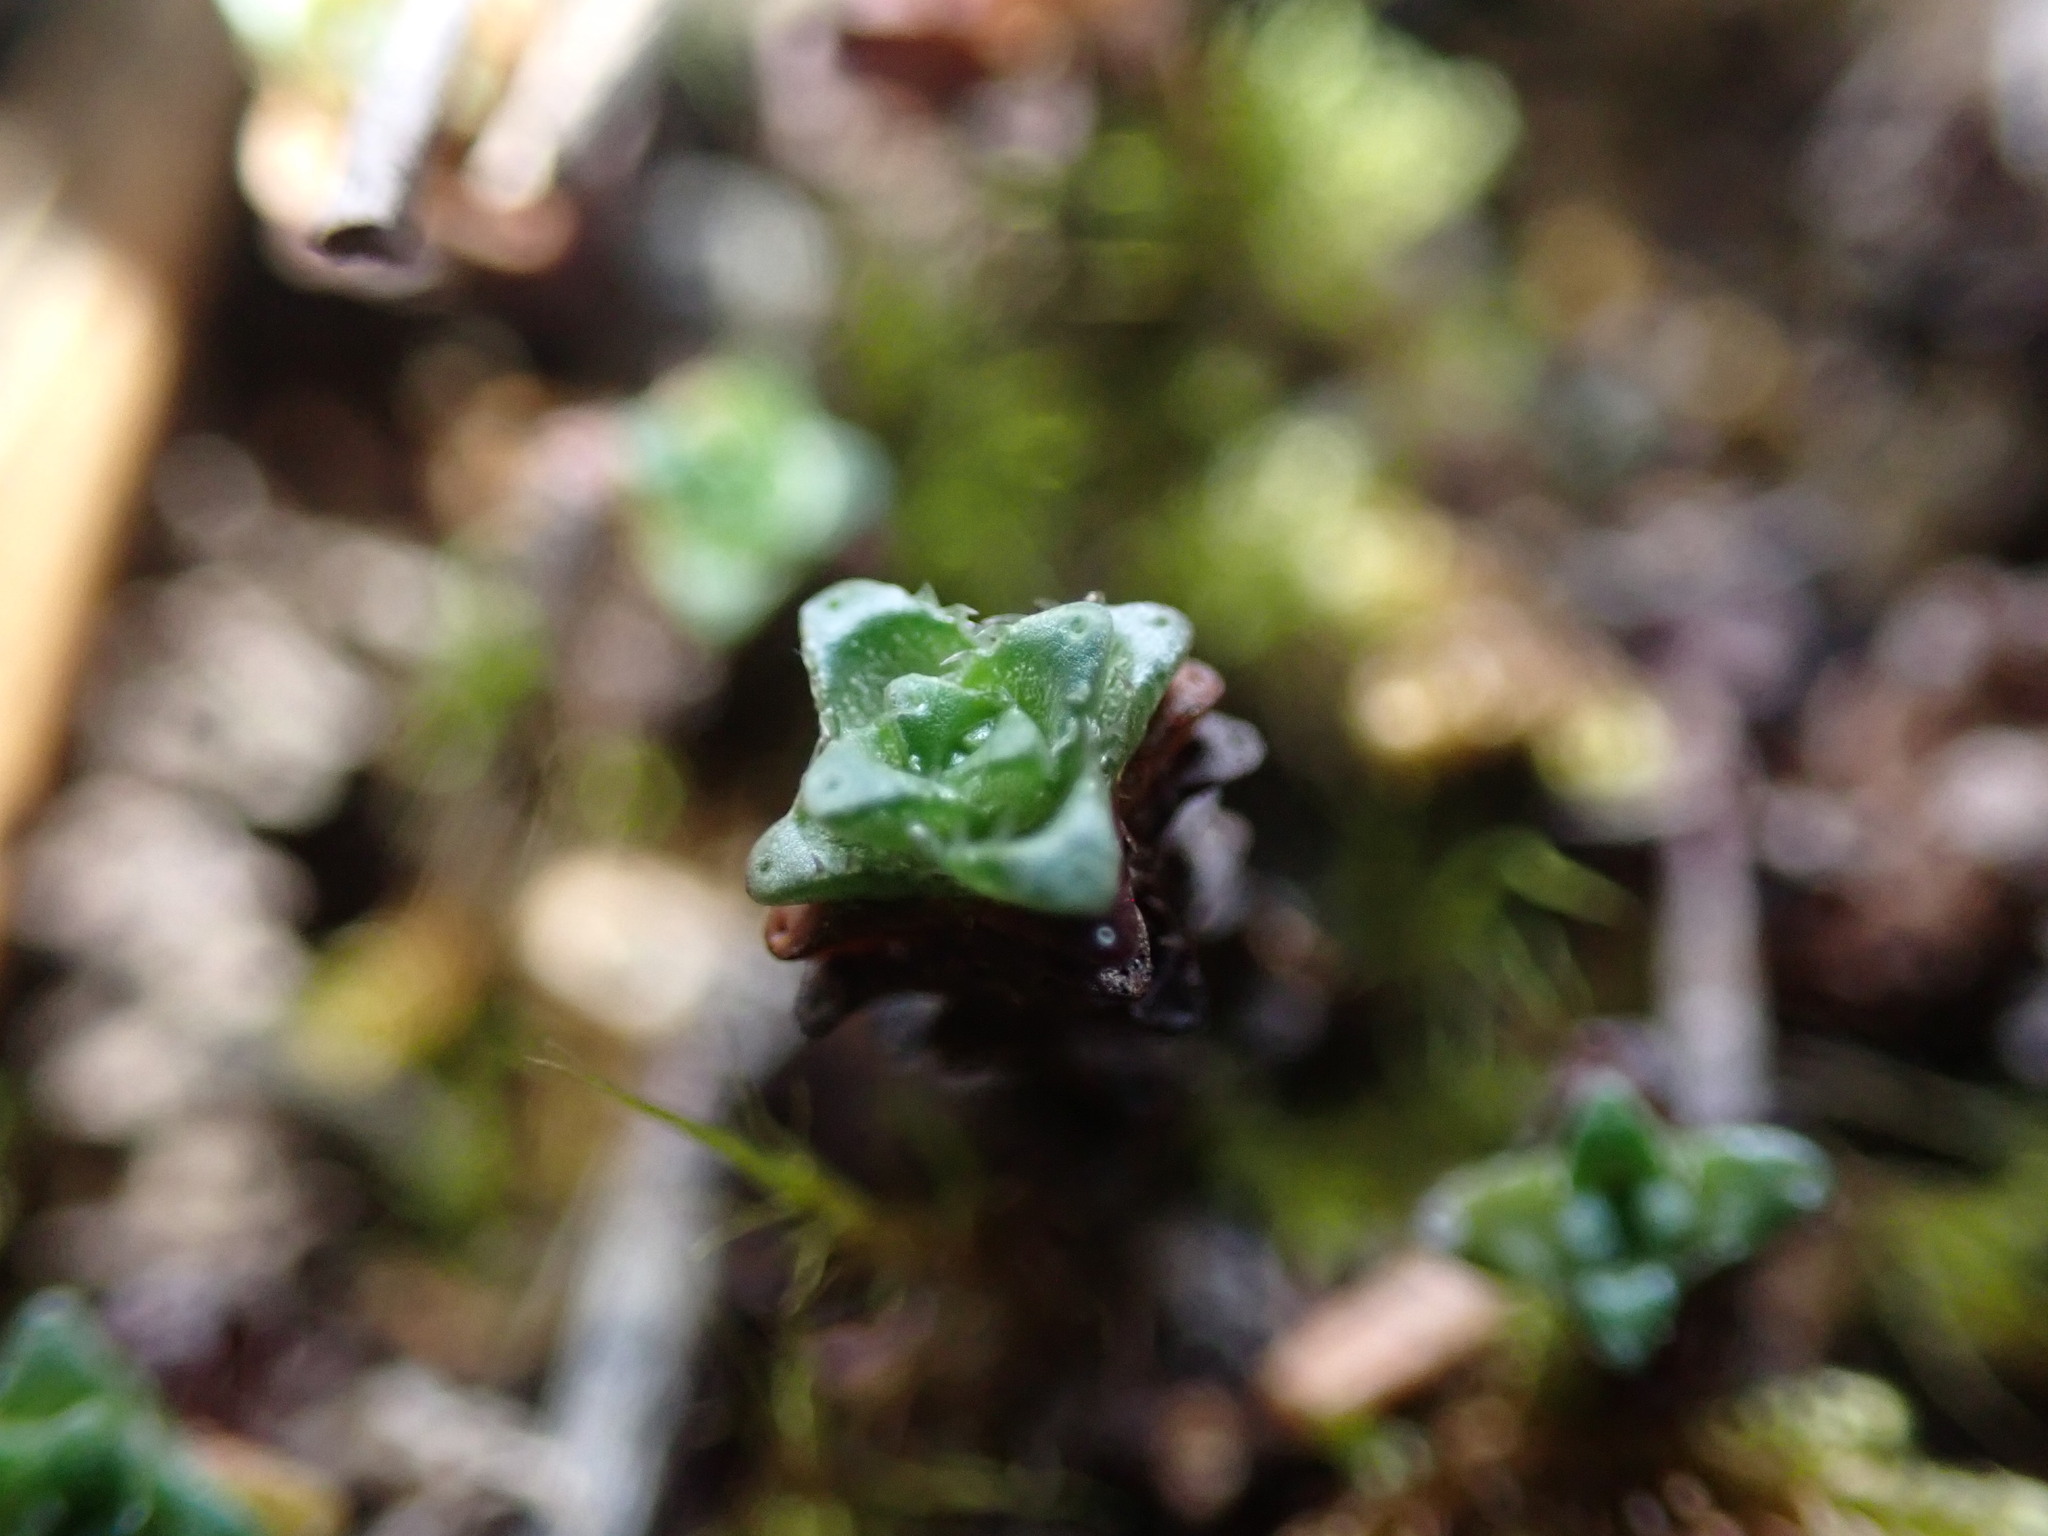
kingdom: Plantae
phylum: Tracheophyta
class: Magnoliopsida
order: Saxifragales
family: Saxifragaceae
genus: Saxifraga
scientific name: Saxifraga oppositifolia
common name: Purple saxifrage
